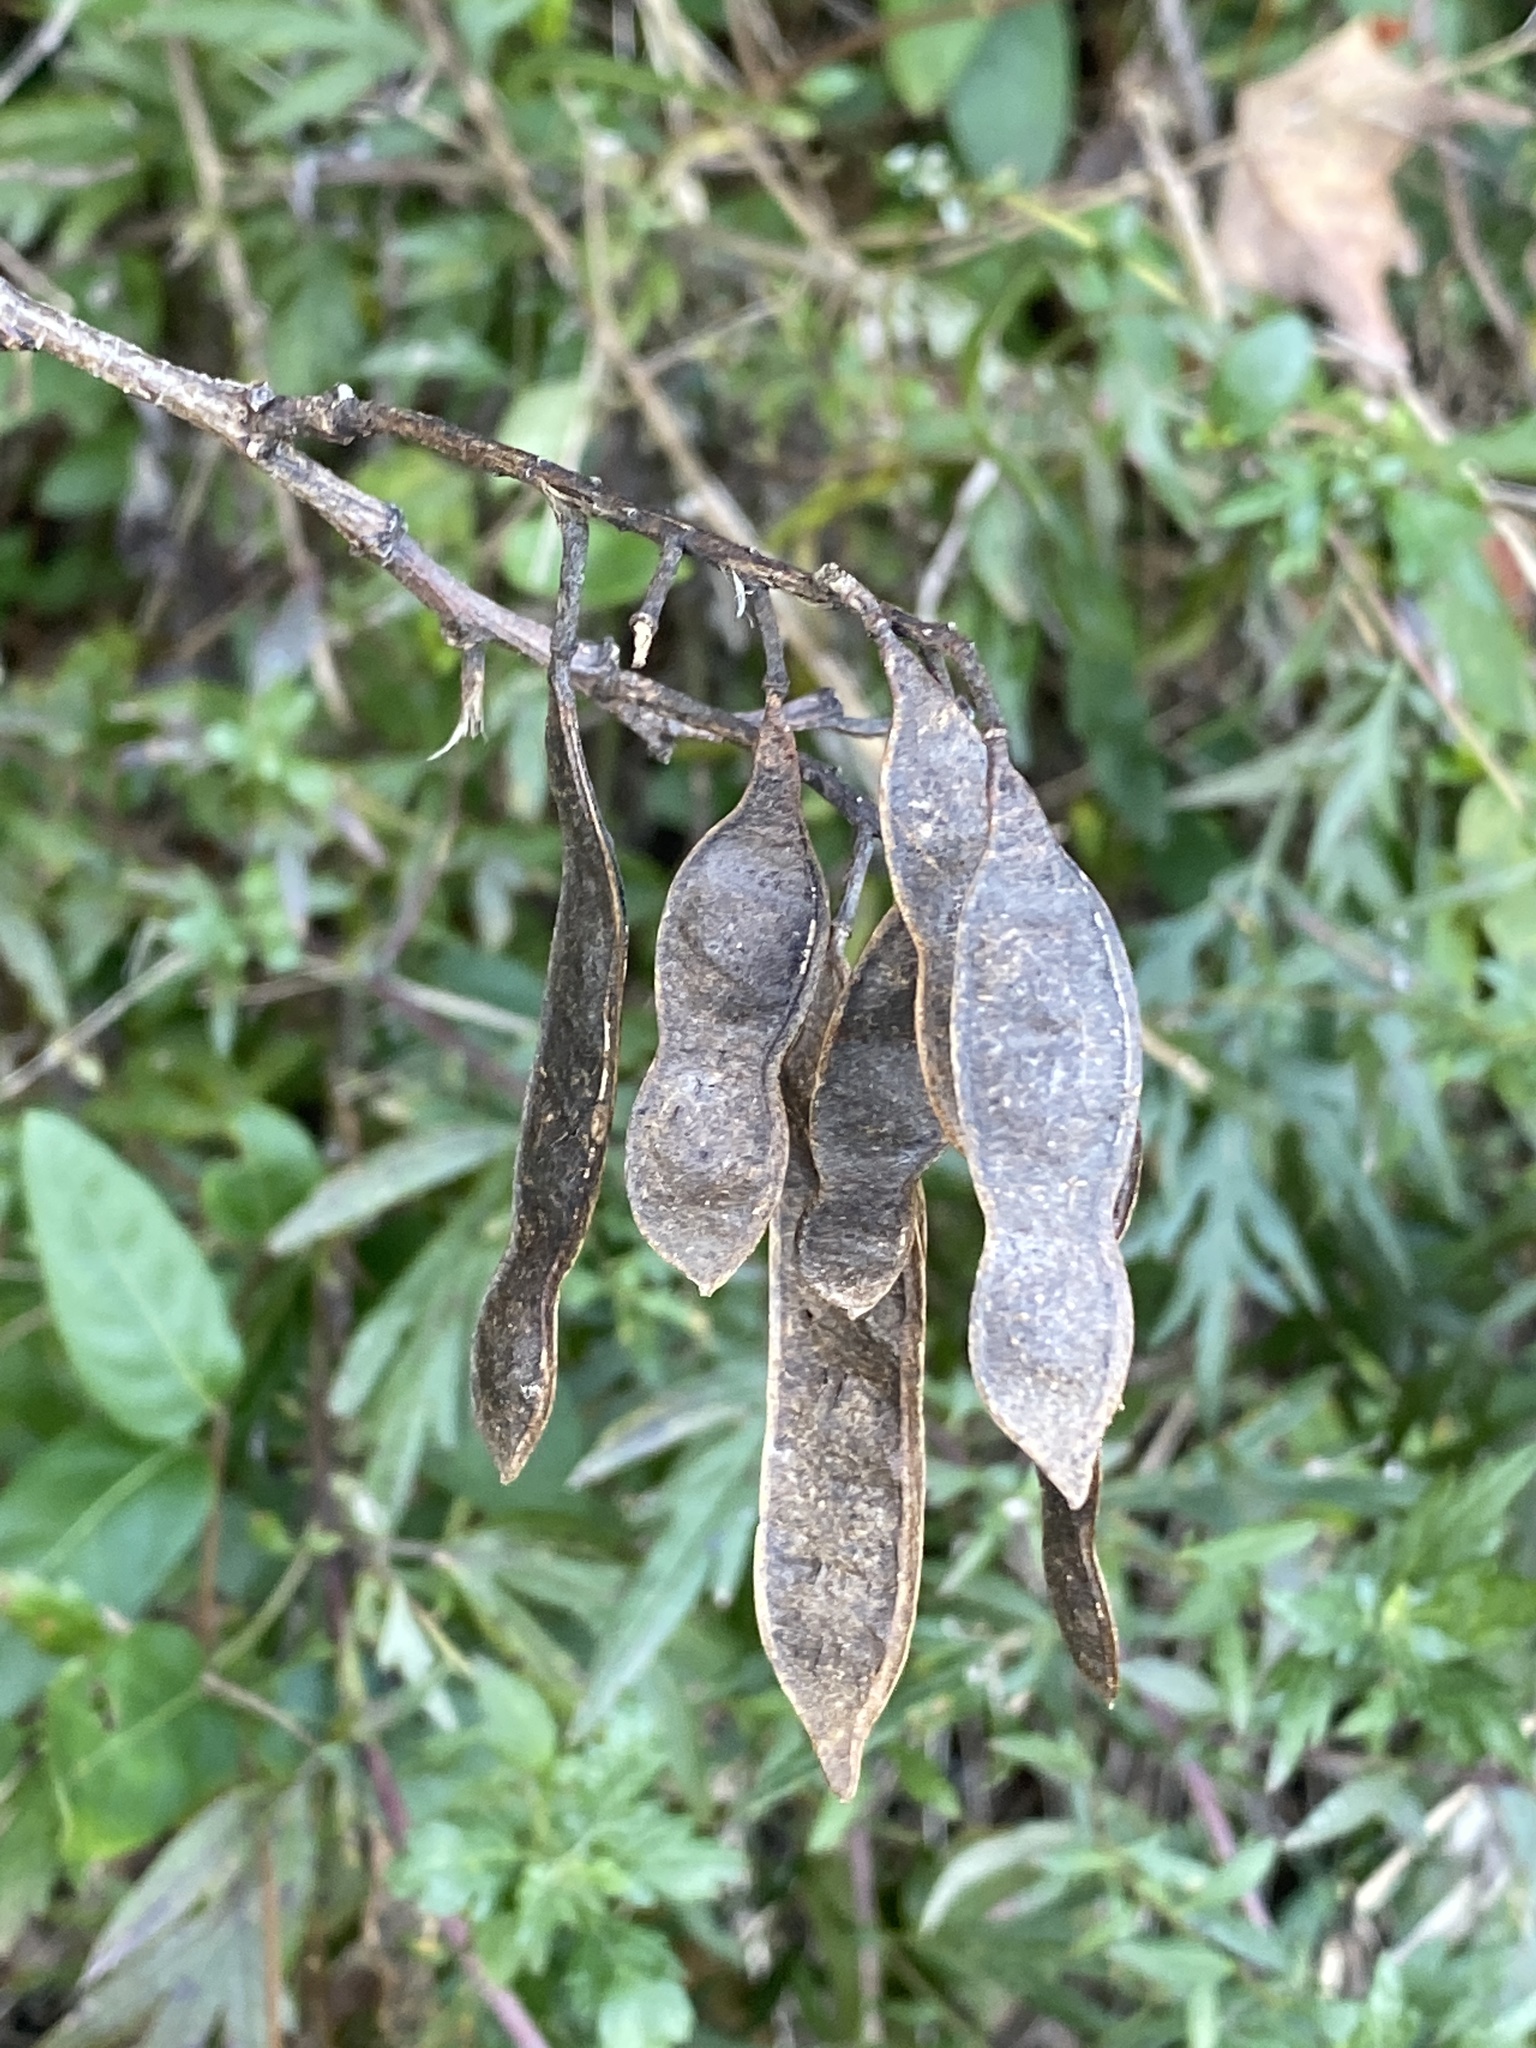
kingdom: Plantae
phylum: Tracheophyta
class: Magnoliopsida
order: Fabales
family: Fabaceae
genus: Robinia
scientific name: Robinia pseudoacacia
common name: Black locust
